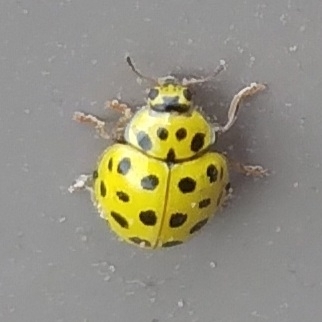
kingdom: Animalia
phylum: Arthropoda
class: Insecta
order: Coleoptera
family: Coccinellidae
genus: Psyllobora
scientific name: Psyllobora vigintiduopunctata
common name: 22-spot ladybird
